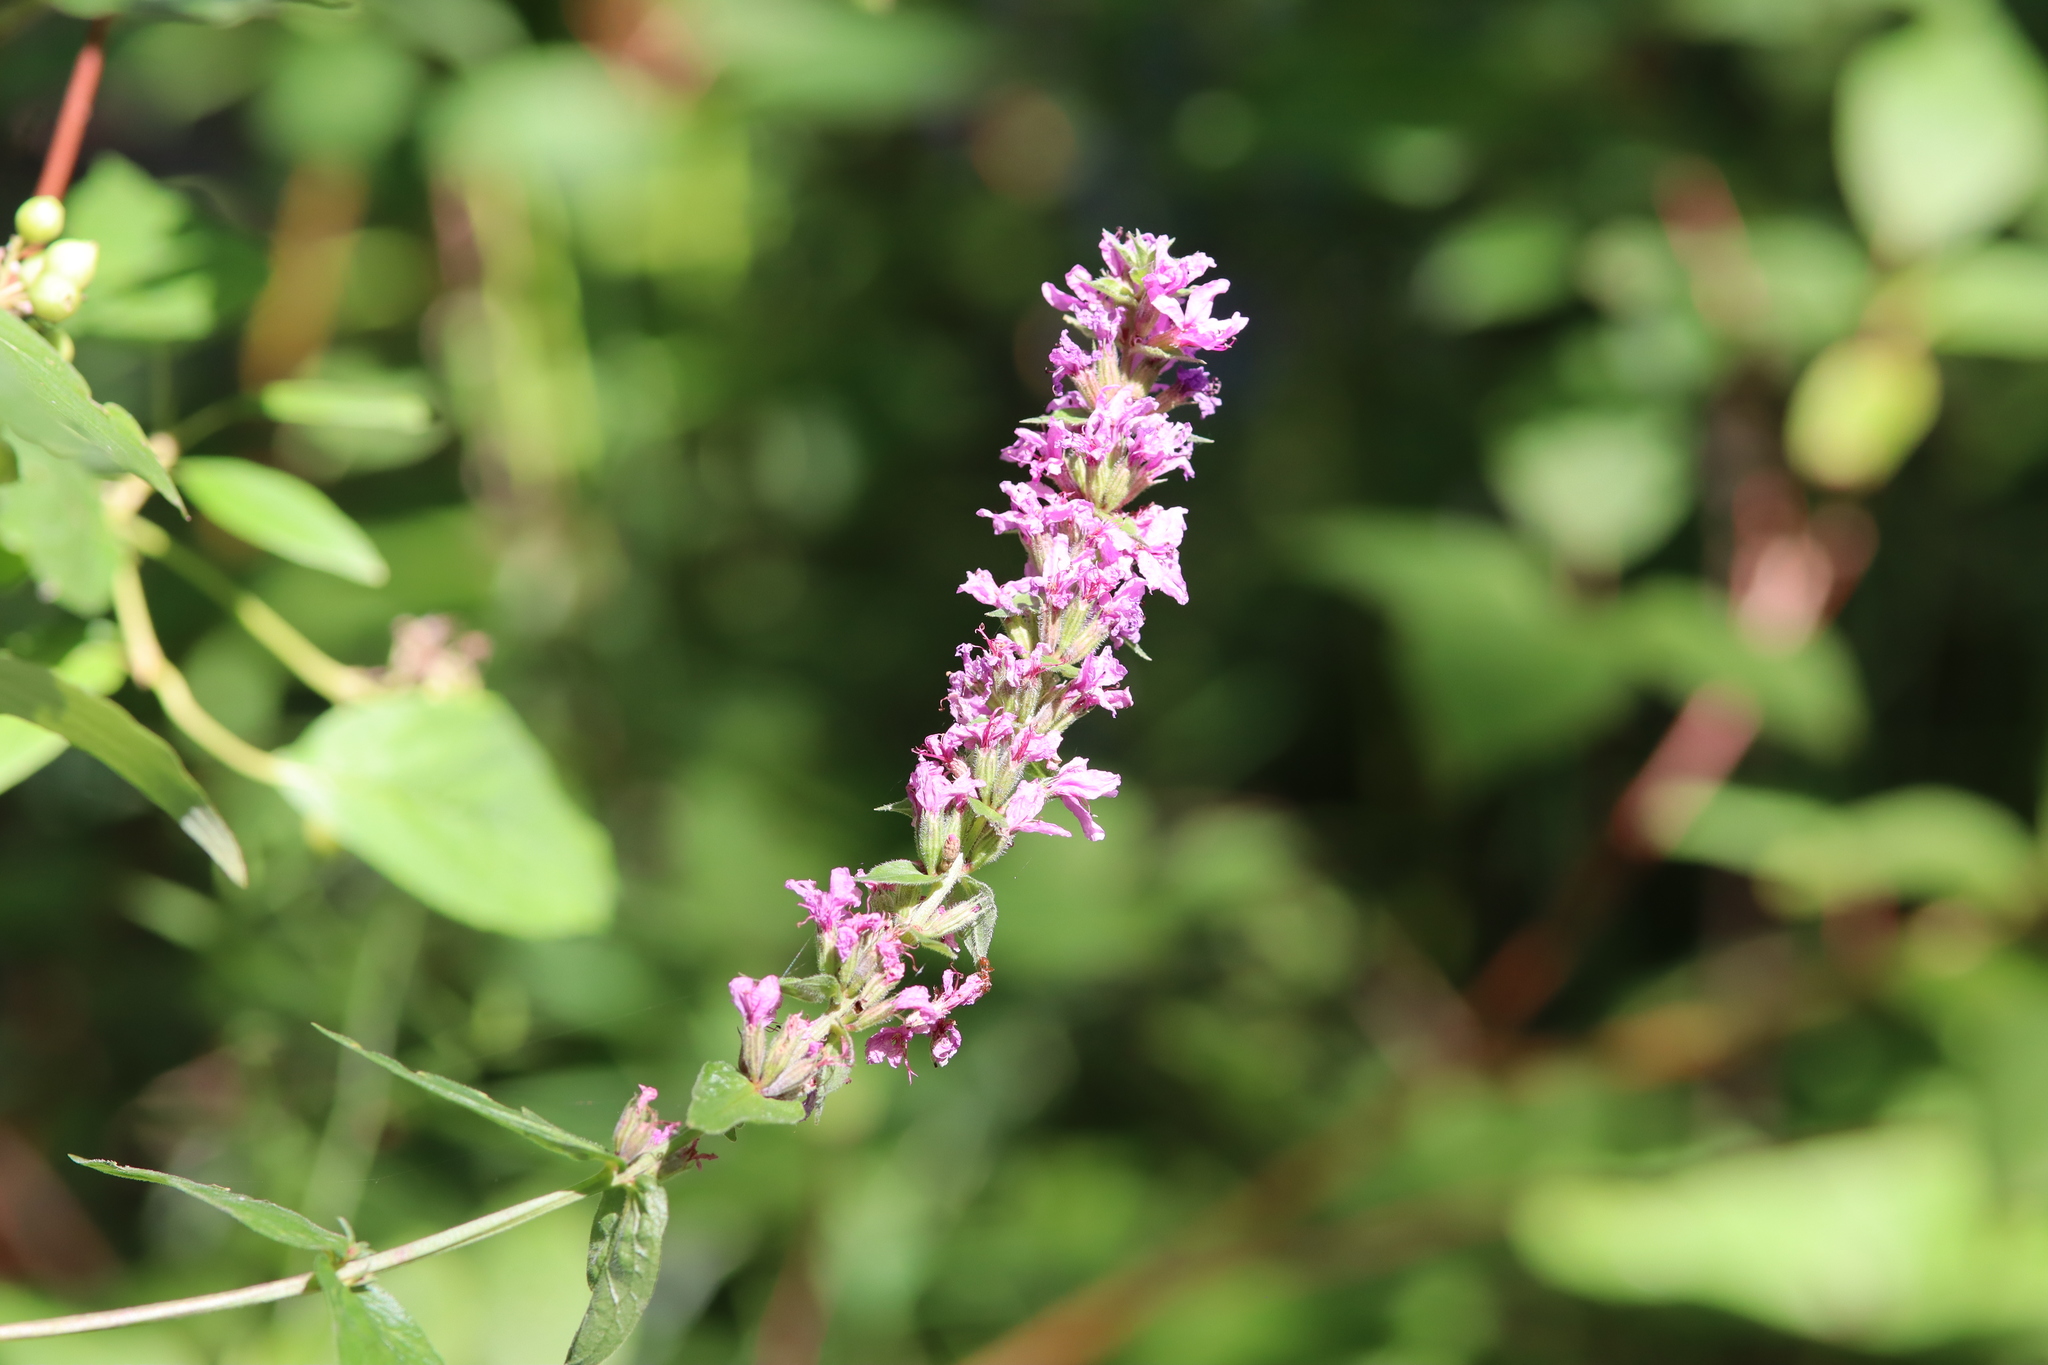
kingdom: Plantae
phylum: Tracheophyta
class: Magnoliopsida
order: Myrtales
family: Lythraceae
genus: Lythrum
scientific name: Lythrum salicaria
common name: Purple loosestrife
